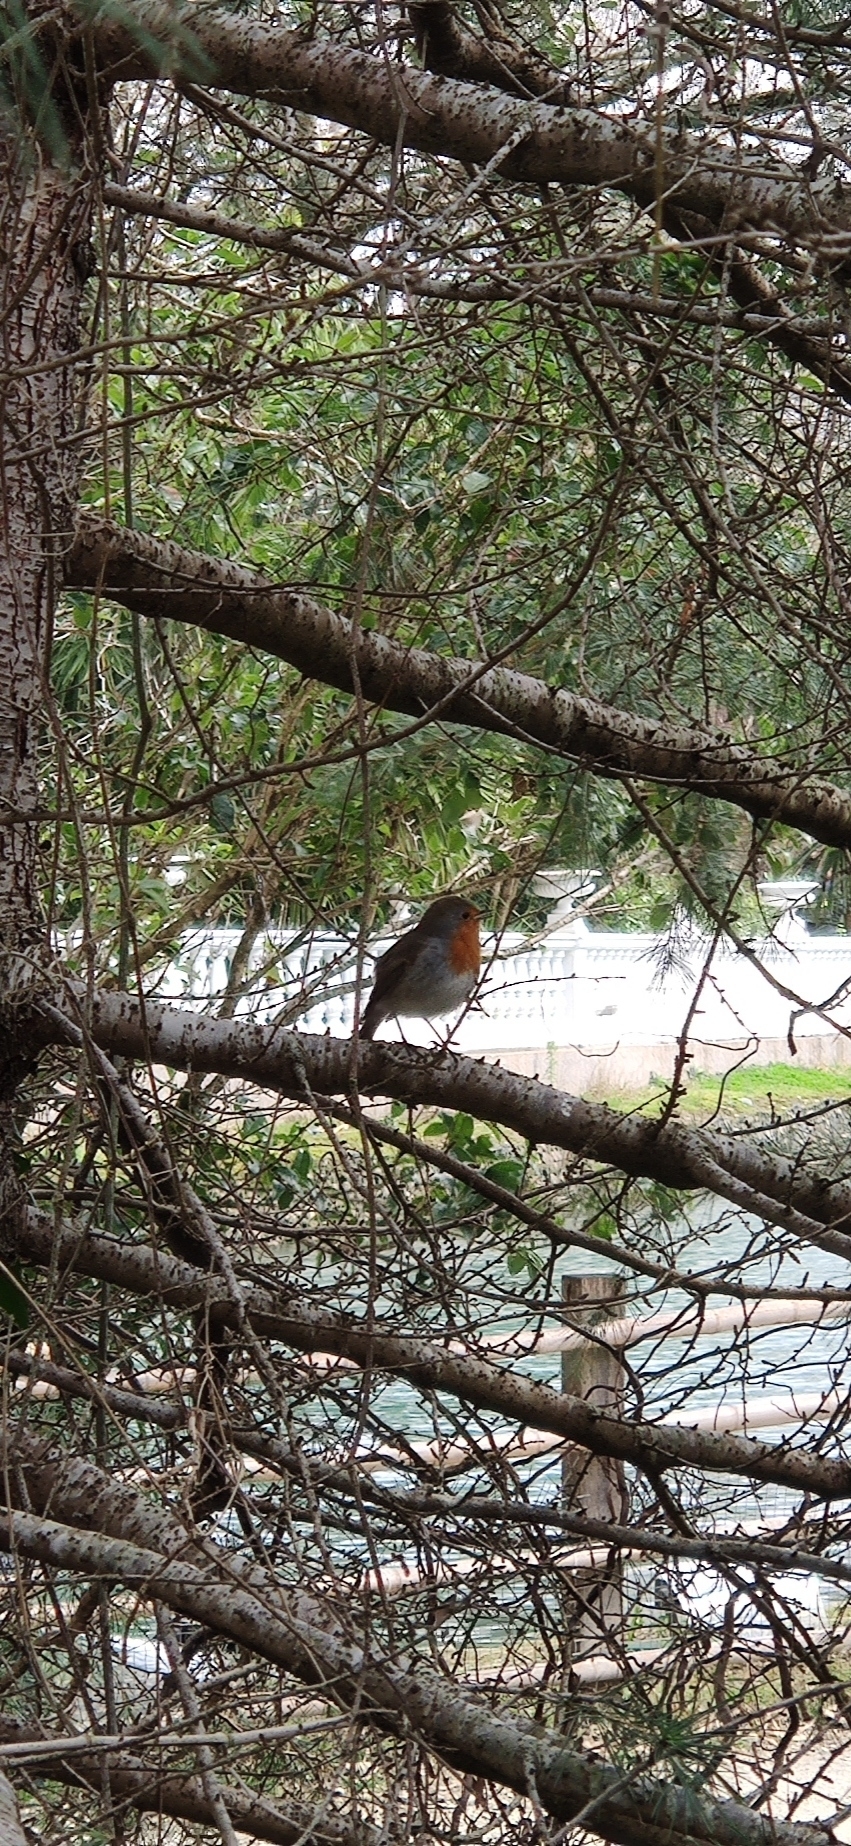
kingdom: Animalia
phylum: Chordata
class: Aves
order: Passeriformes
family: Muscicapidae
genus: Erithacus
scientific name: Erithacus rubecula
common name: European robin
